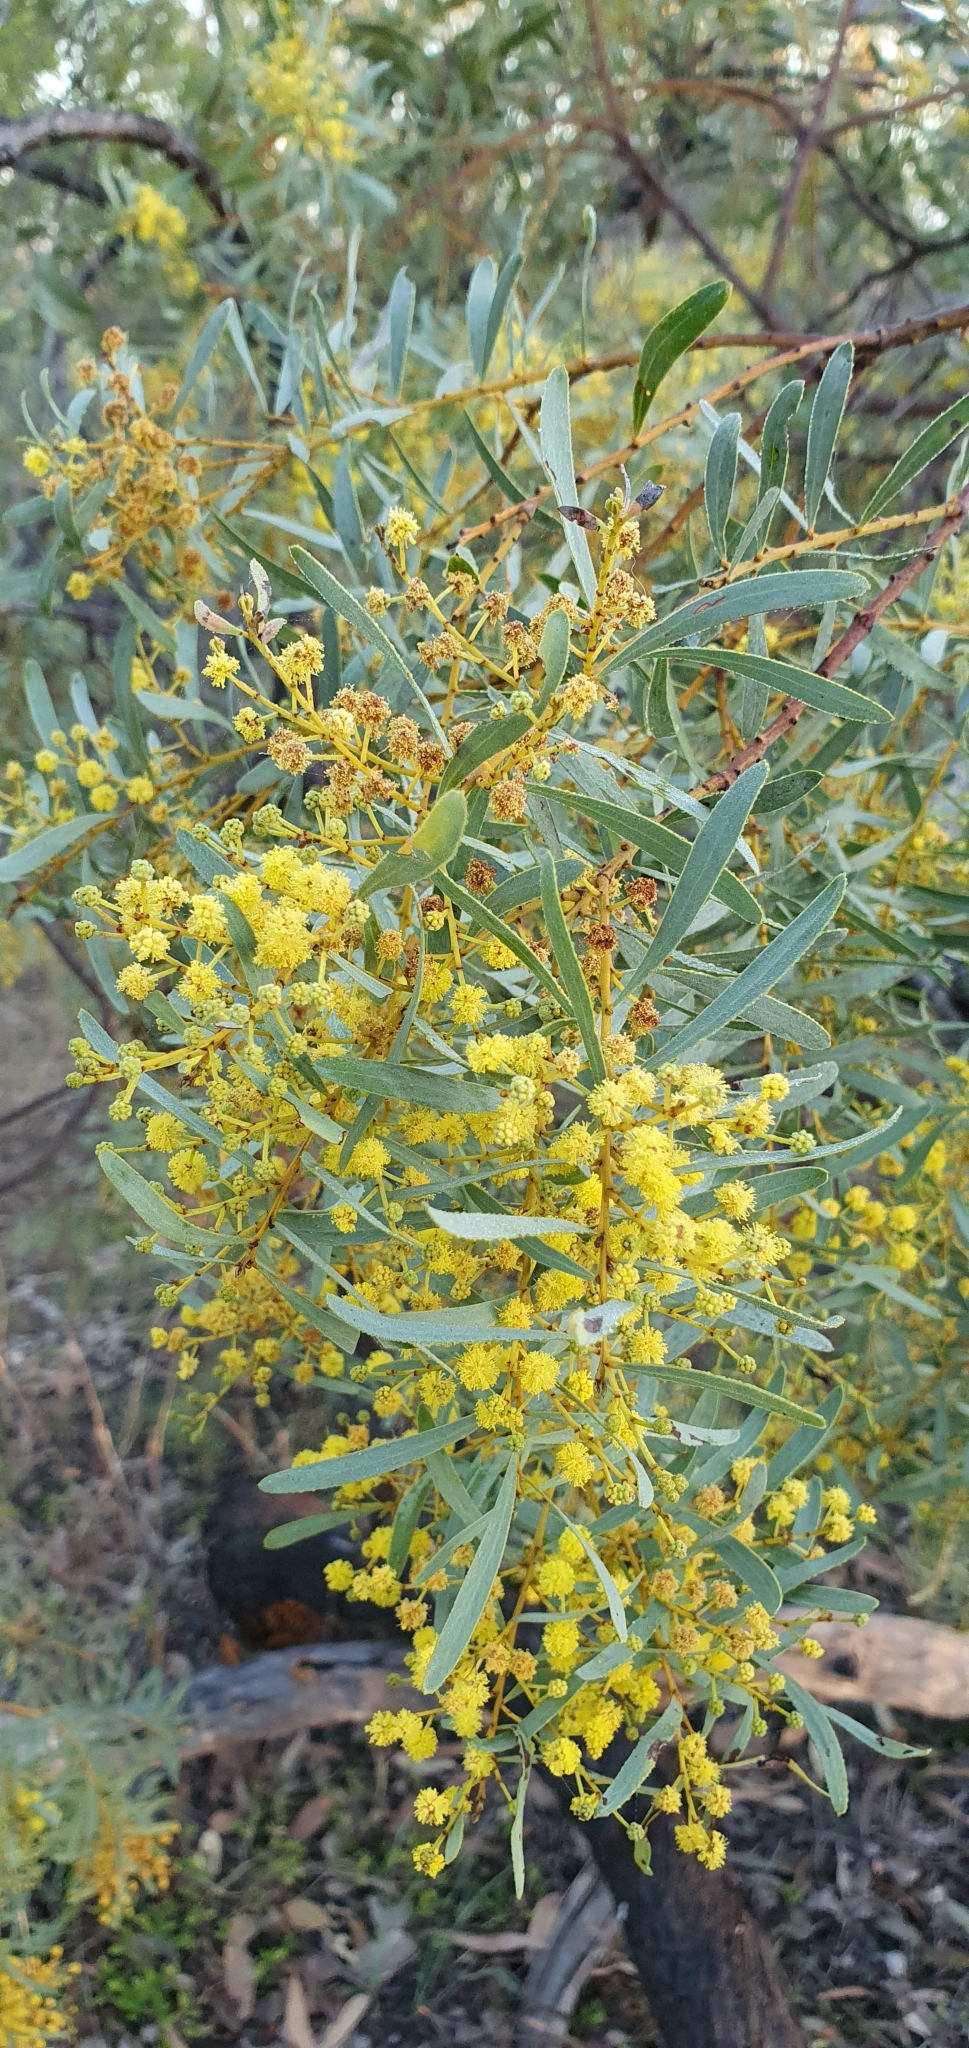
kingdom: Plantae
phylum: Tracheophyta
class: Magnoliopsida
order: Fabales
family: Fabaceae
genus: Acacia
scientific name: Acacia decora
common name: Showy wattle
